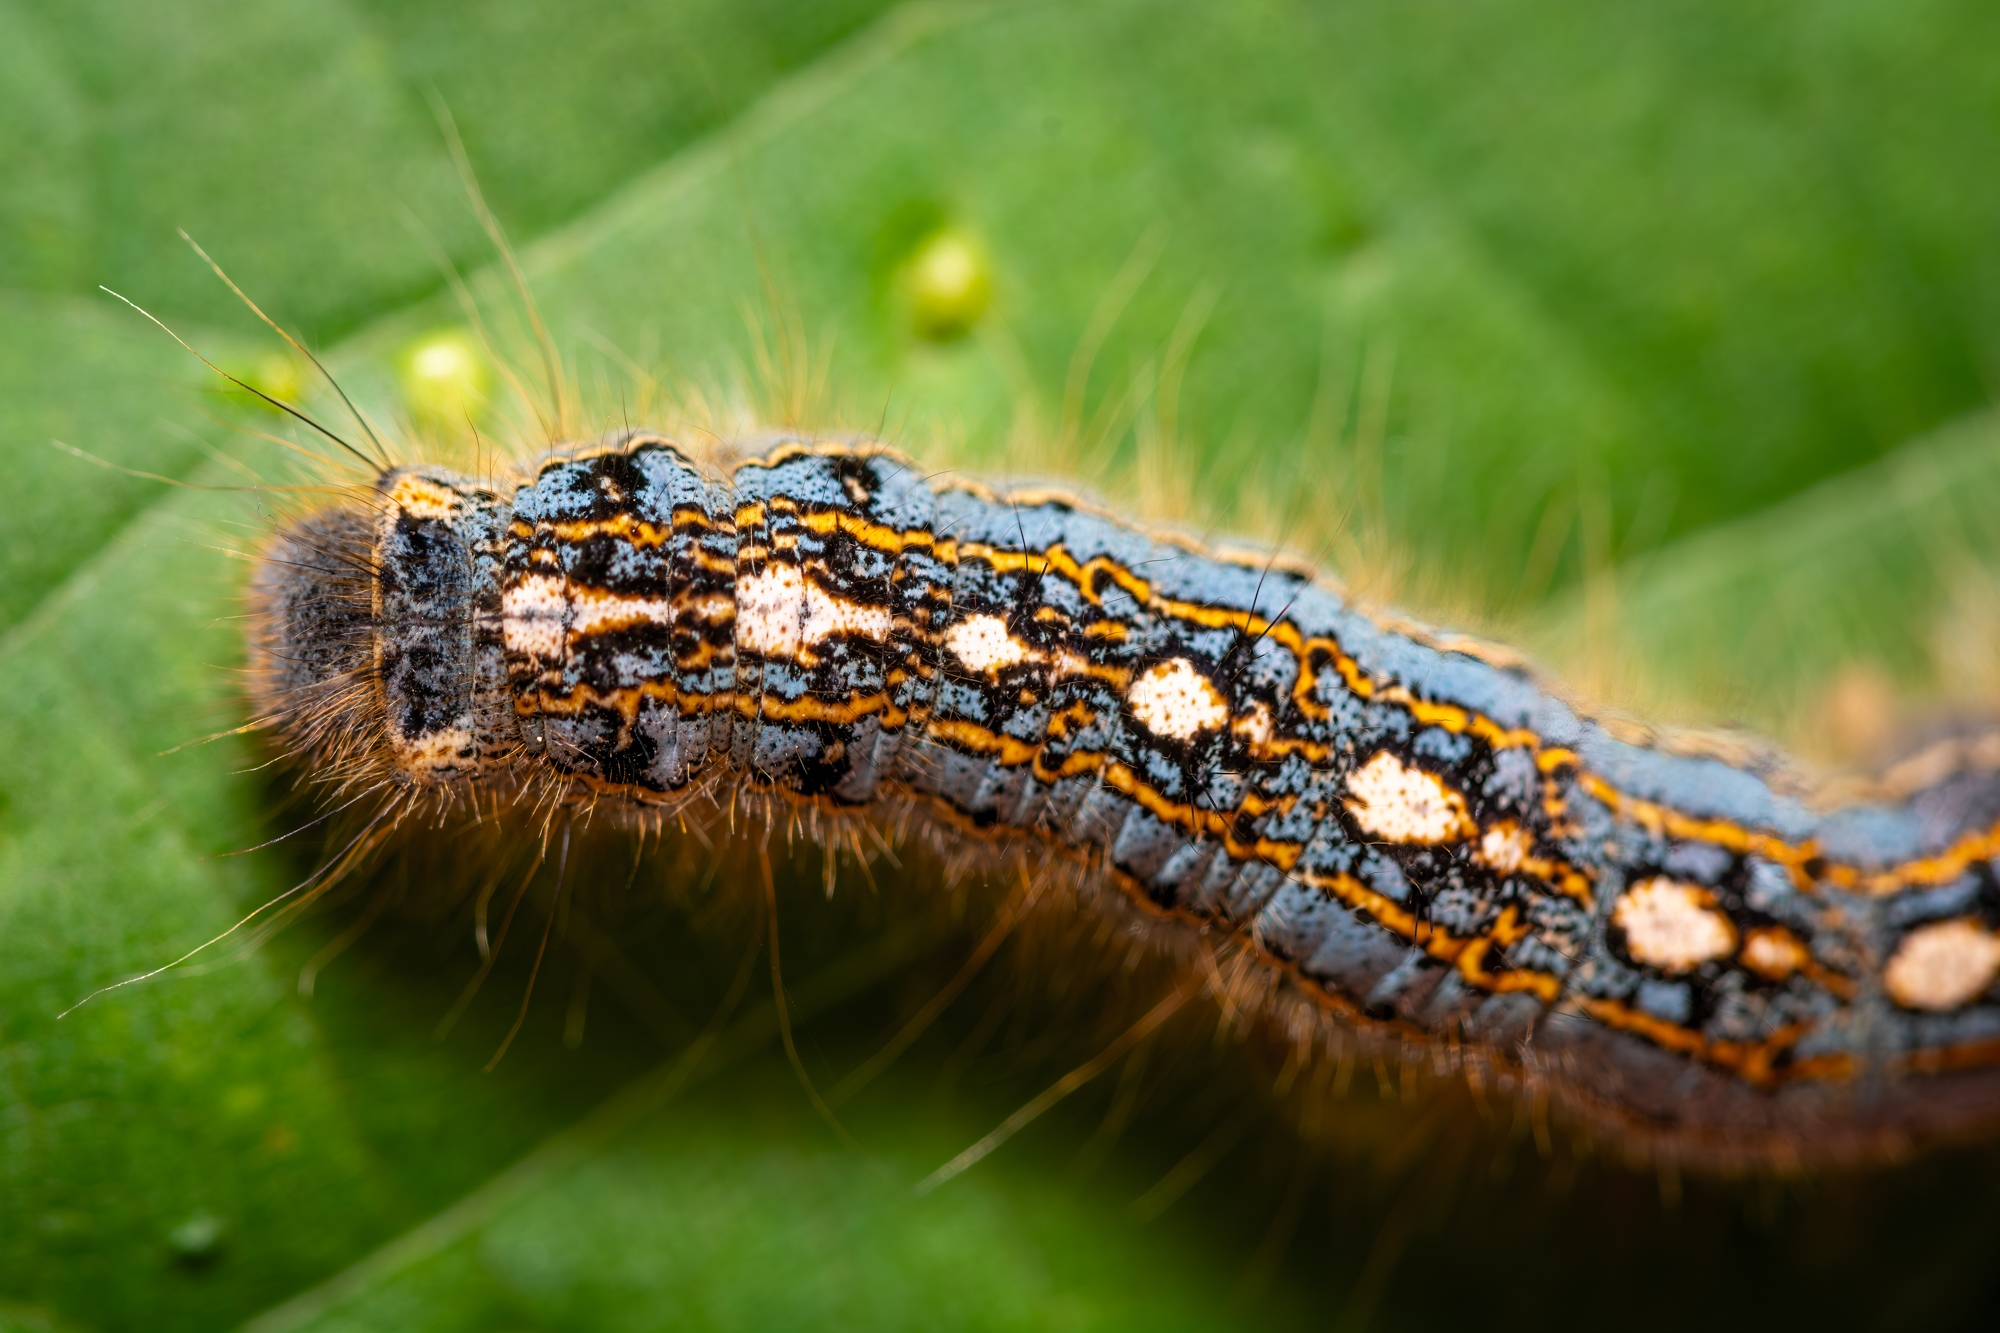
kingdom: Animalia
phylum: Arthropoda
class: Insecta
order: Lepidoptera
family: Lasiocampidae
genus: Malacosoma
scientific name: Malacosoma disstria
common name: Forest tent caterpillar
